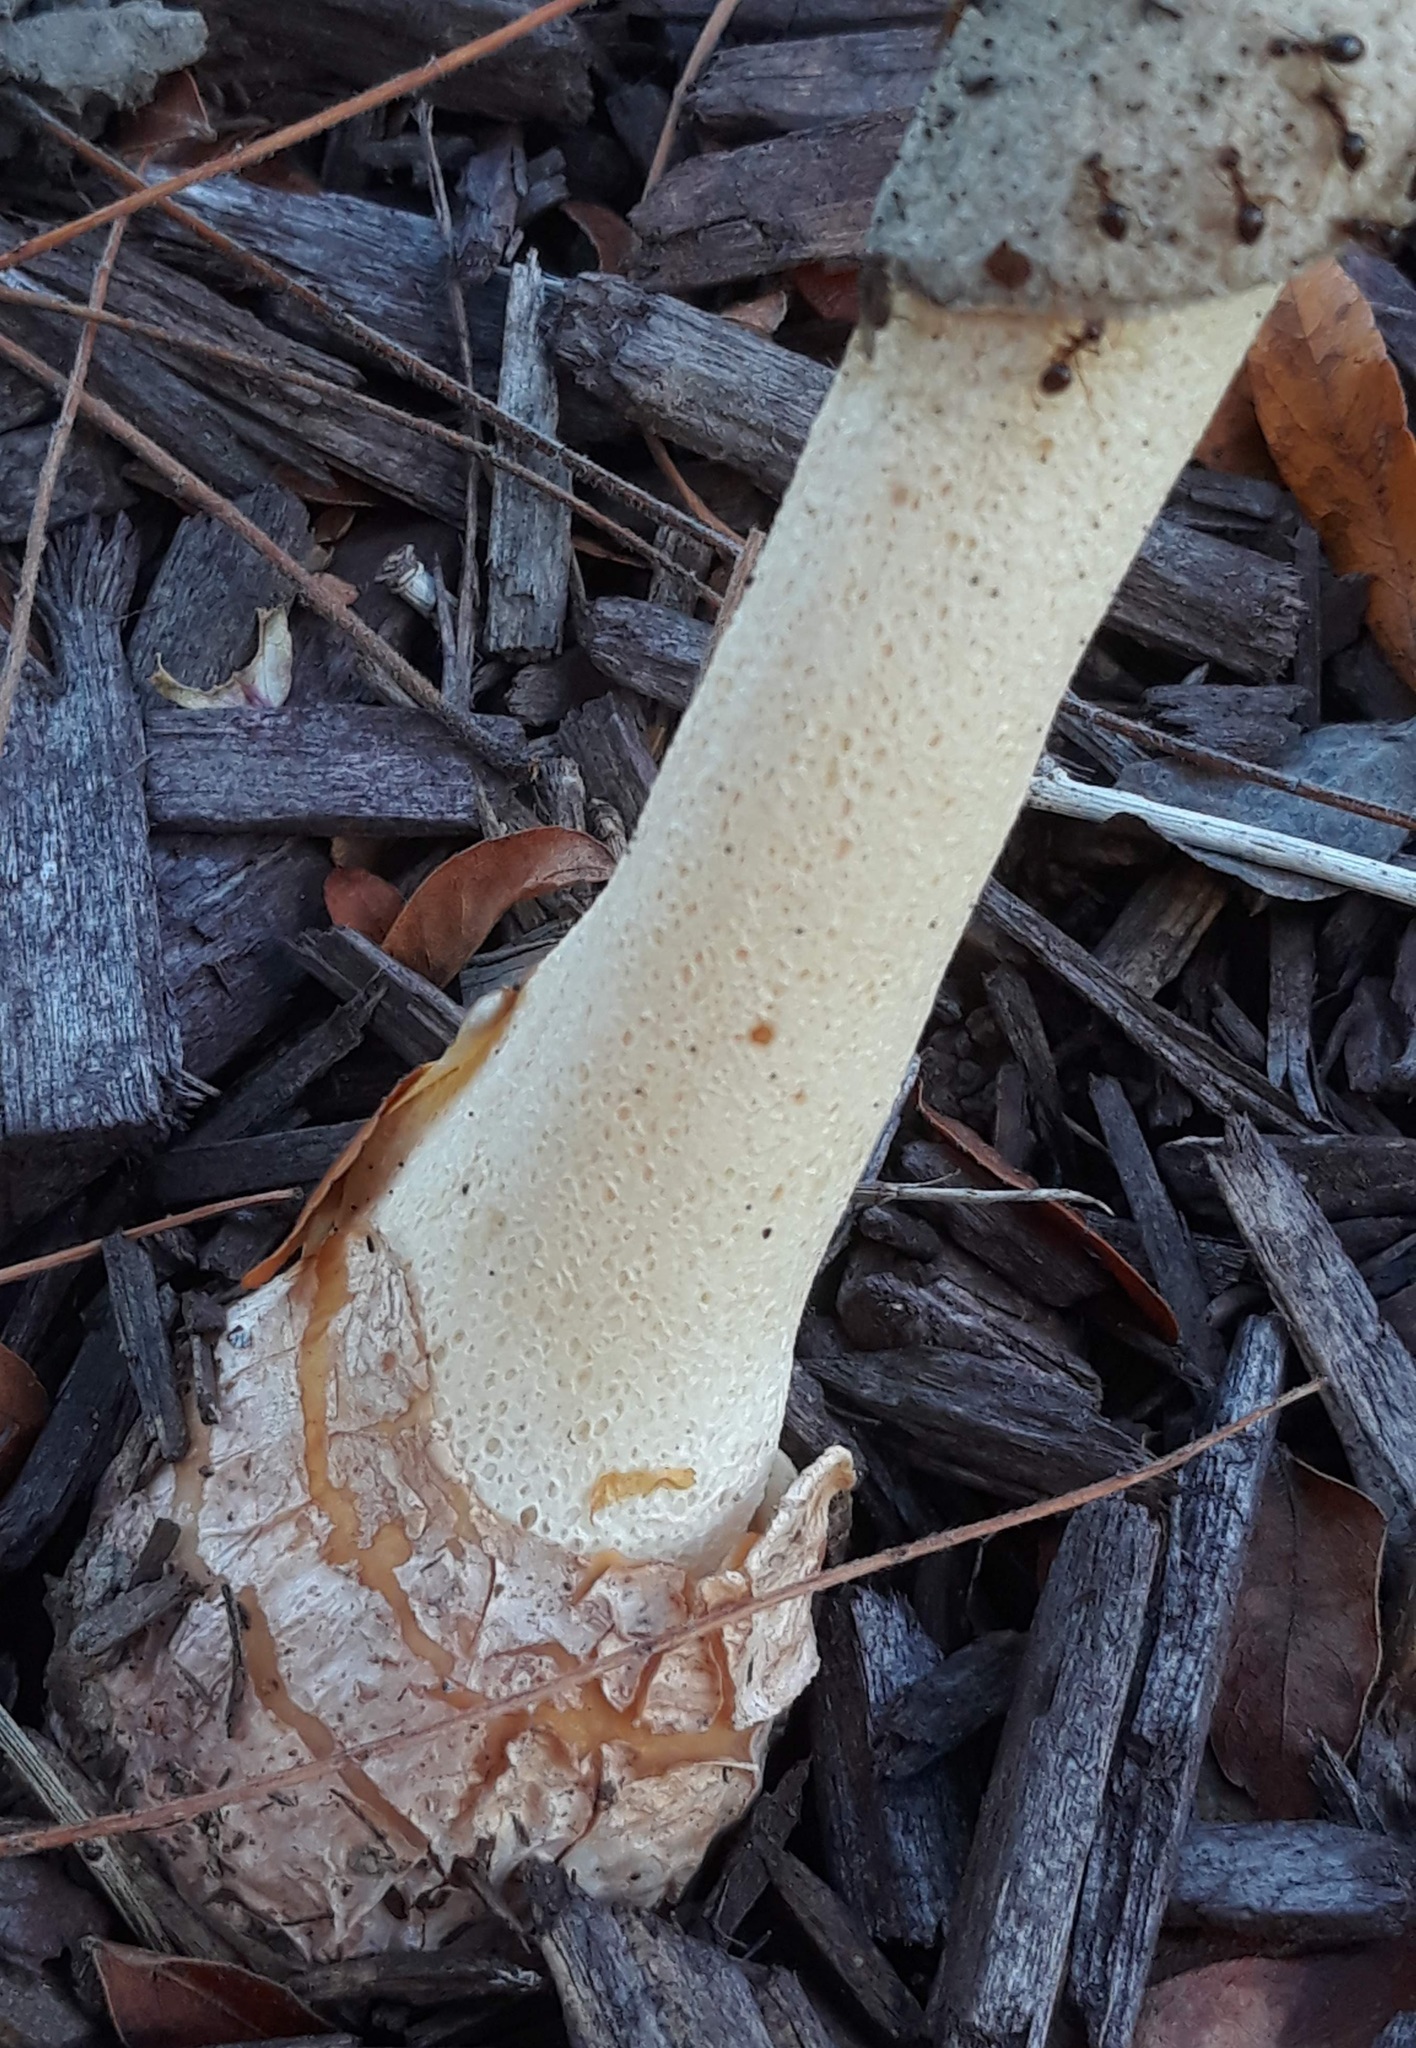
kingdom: Fungi
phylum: Basidiomycota
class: Agaricomycetes
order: Phallales
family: Phallaceae
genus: Phallus
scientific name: Phallus ravenelii
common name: Ravenel's stinkhorn
